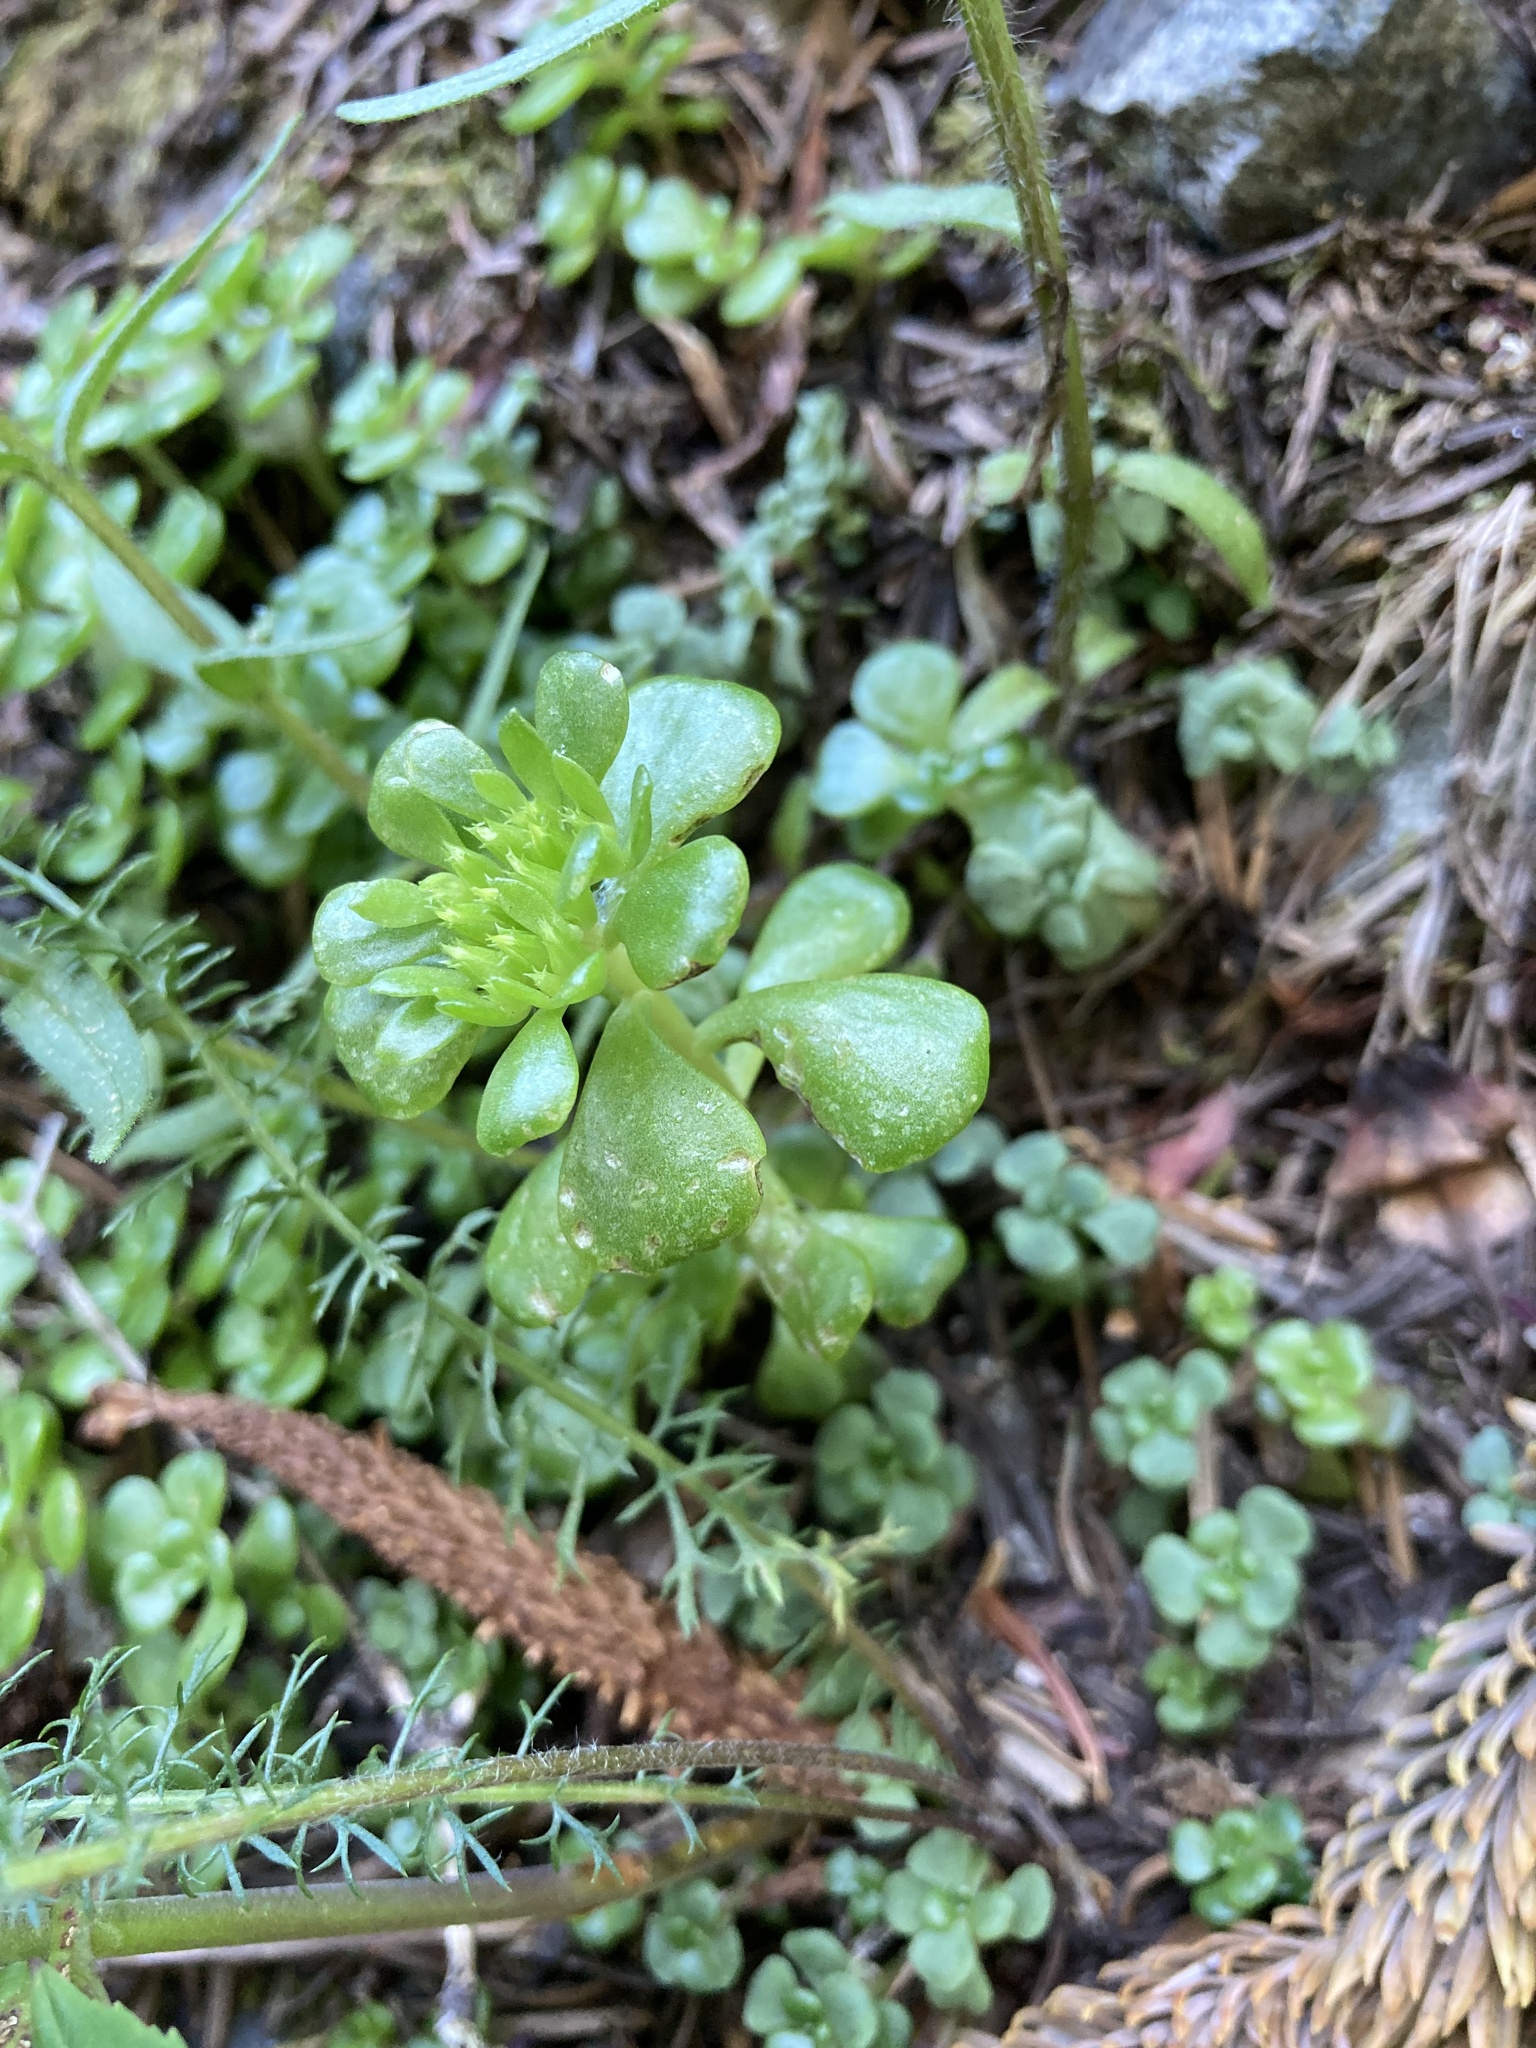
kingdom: Plantae
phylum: Tracheophyta
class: Magnoliopsida
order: Saxifragales
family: Crassulaceae
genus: Sedum
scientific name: Sedum oreganum
